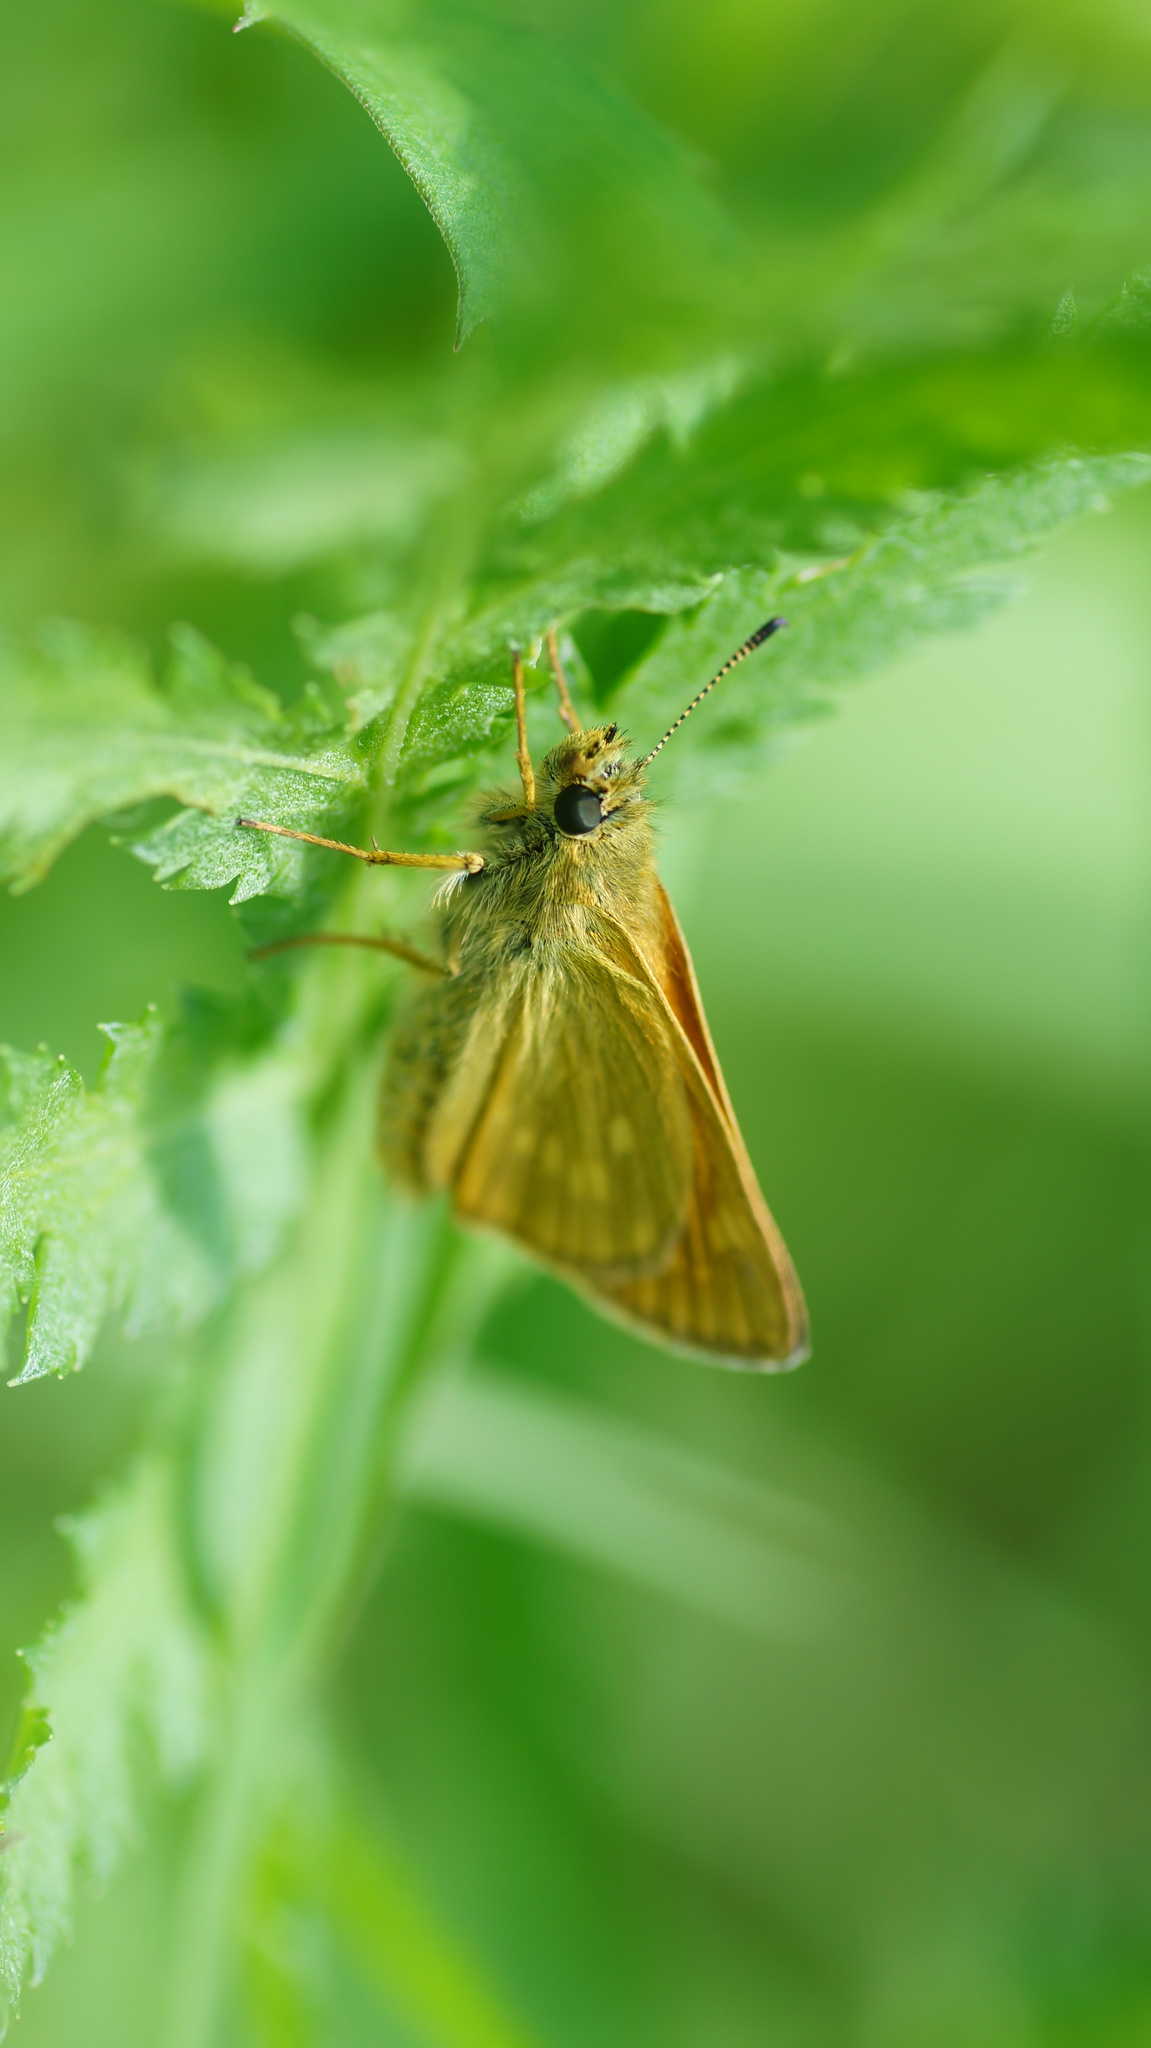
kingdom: Animalia
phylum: Arthropoda
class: Insecta
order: Lepidoptera
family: Hesperiidae
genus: Ochlodes
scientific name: Ochlodes venata
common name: Large skipper
